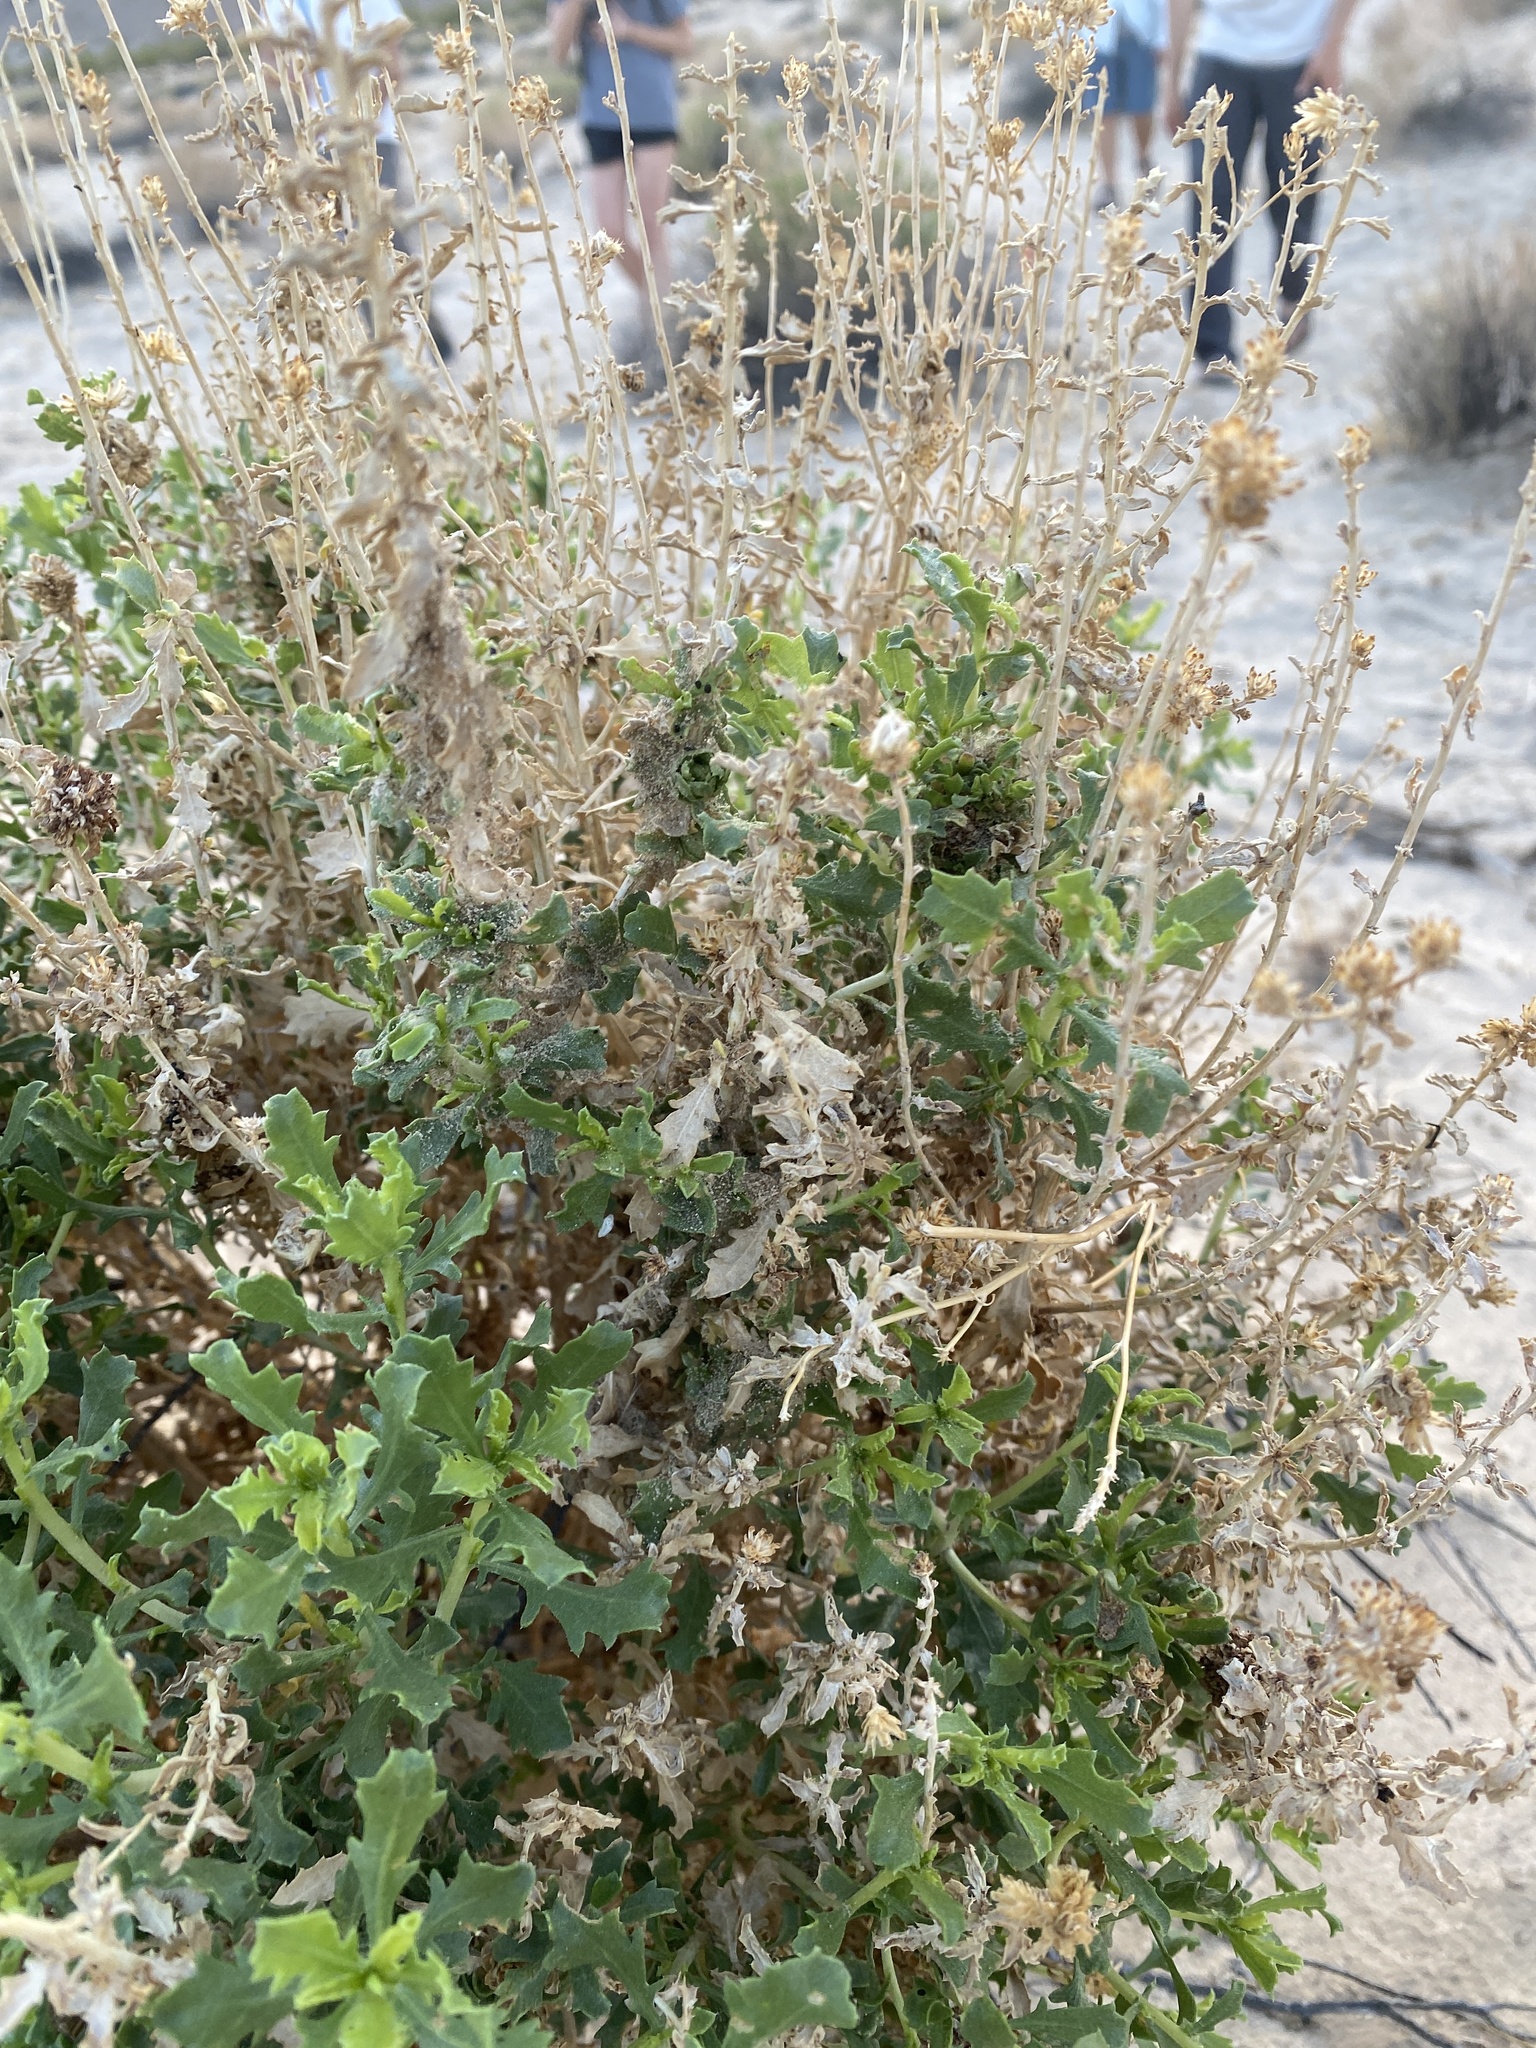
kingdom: Plantae
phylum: Tracheophyta
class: Magnoliopsida
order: Asterales
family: Asteraceae
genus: Isocoma
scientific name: Isocoma acradenia
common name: Alkali jimmyweed
